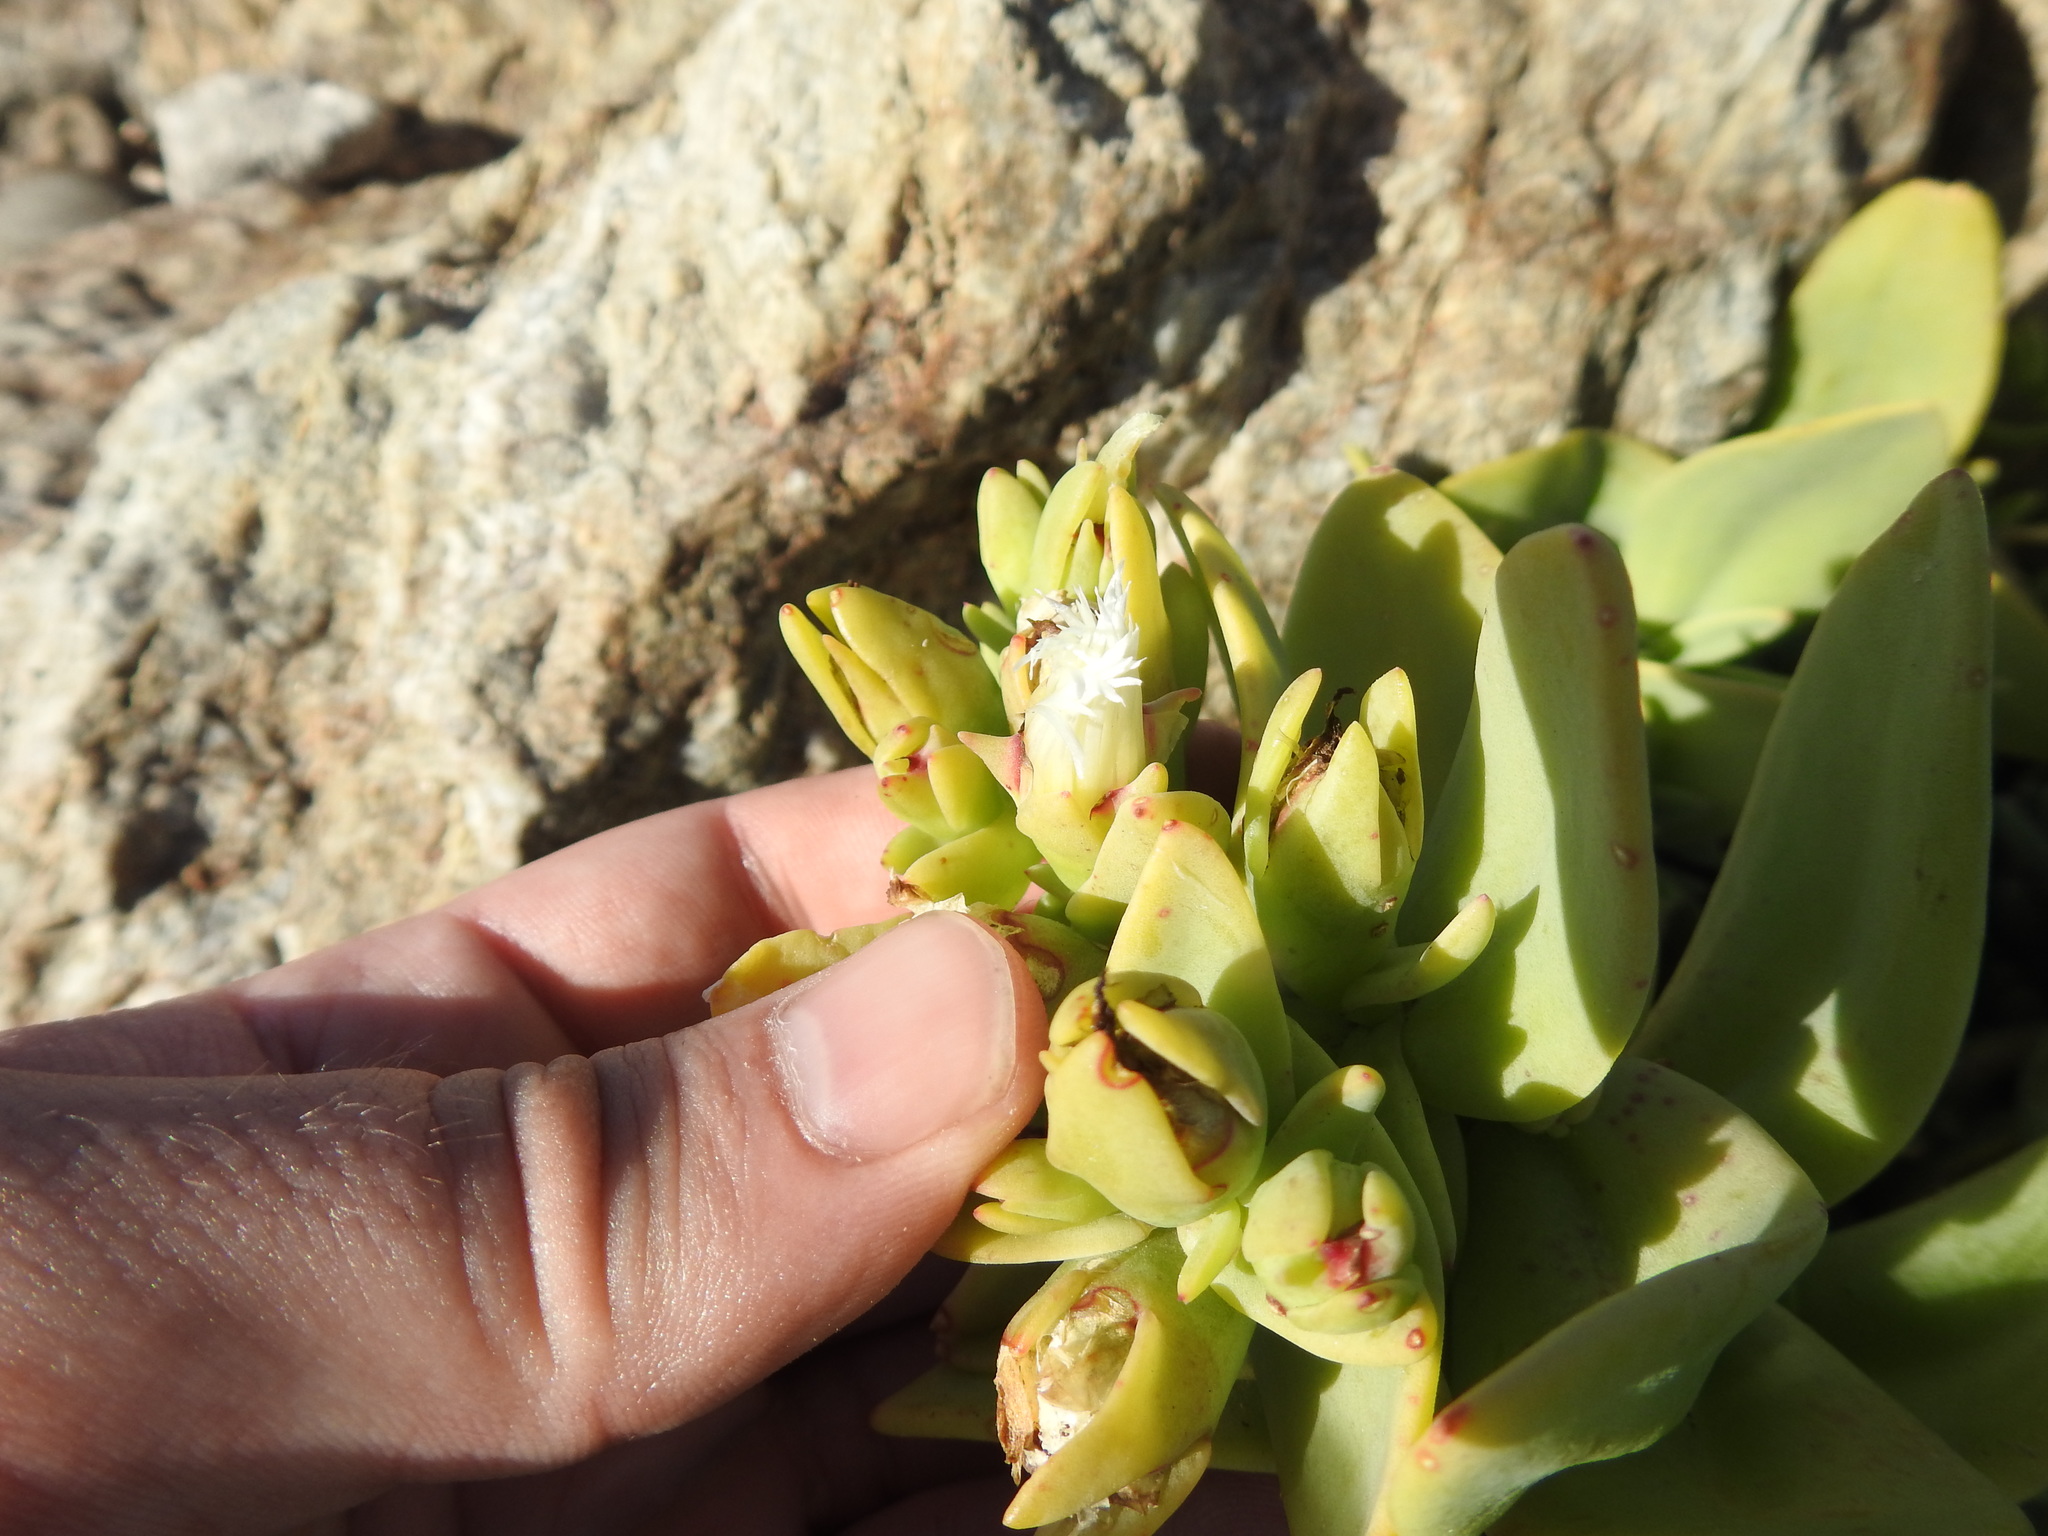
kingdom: Plantae
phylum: Tracheophyta
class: Magnoliopsida
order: Caryophyllales
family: Aizoaceae
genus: Mesembryanthemum
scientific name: Mesembryanthemum vanrensburgii
